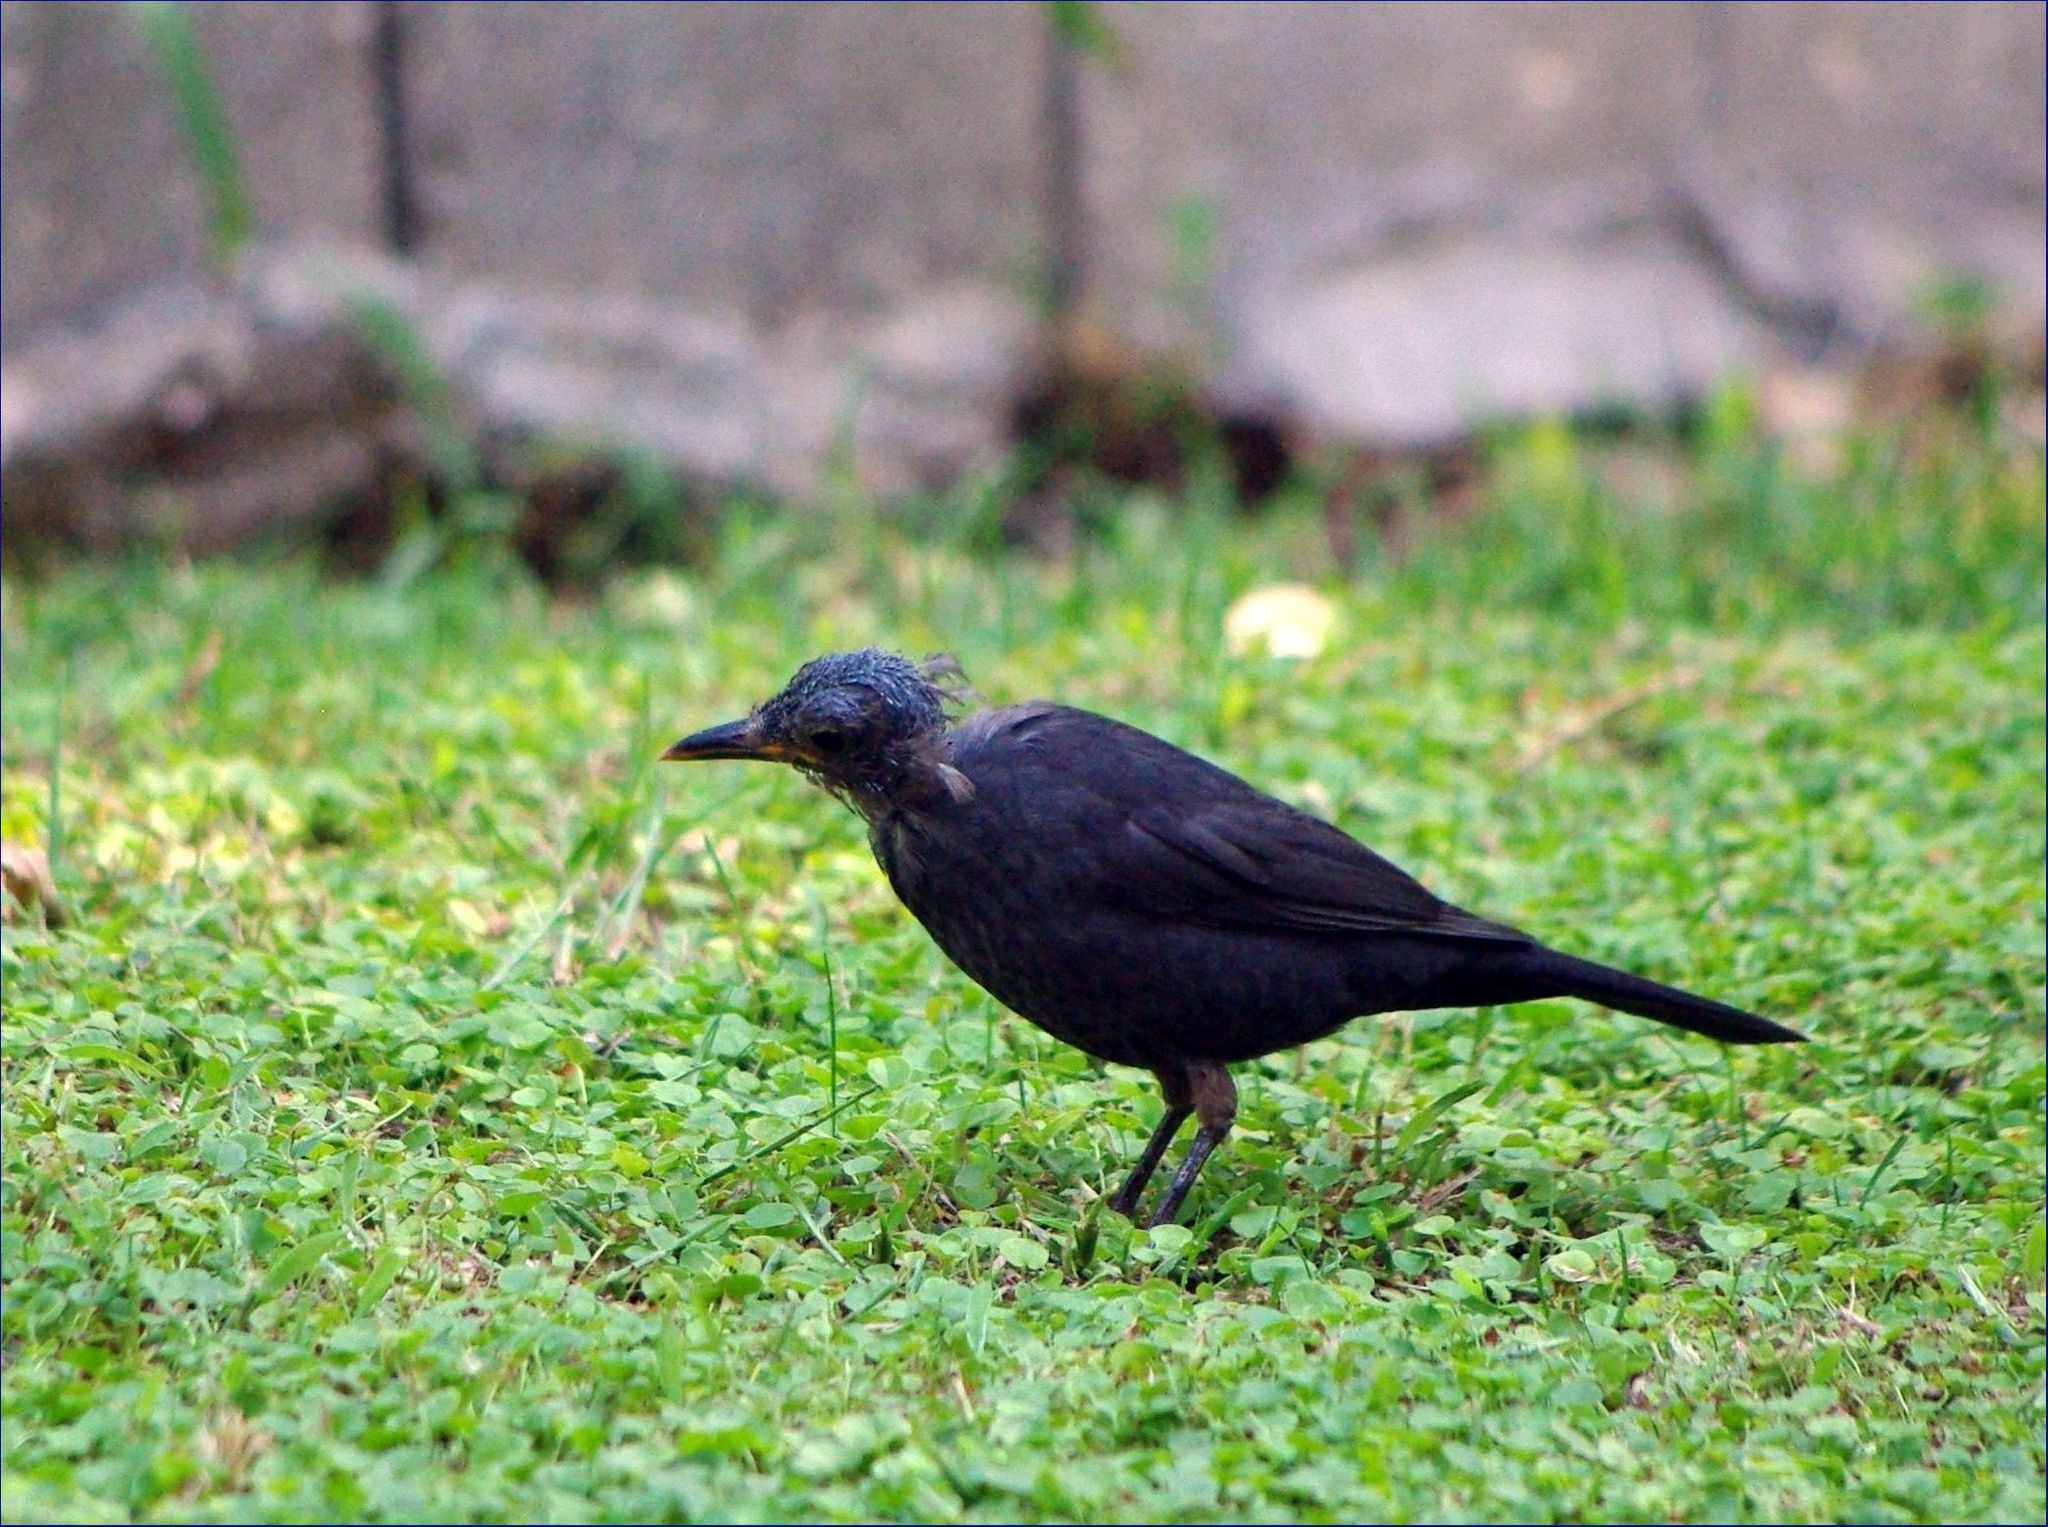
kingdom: Animalia
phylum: Chordata
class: Aves
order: Passeriformes
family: Turdidae
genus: Turdus
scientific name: Turdus merula
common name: Common blackbird
